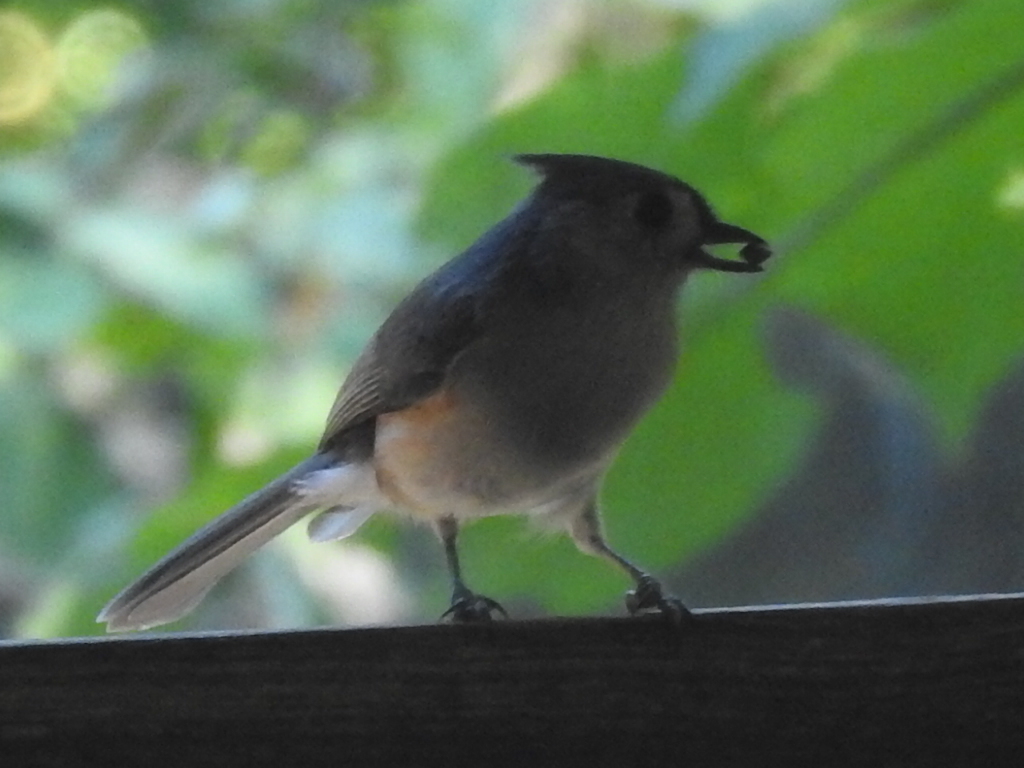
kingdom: Animalia
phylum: Chordata
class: Aves
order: Passeriformes
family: Paridae
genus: Baeolophus
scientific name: Baeolophus bicolor
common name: Tufted titmouse
